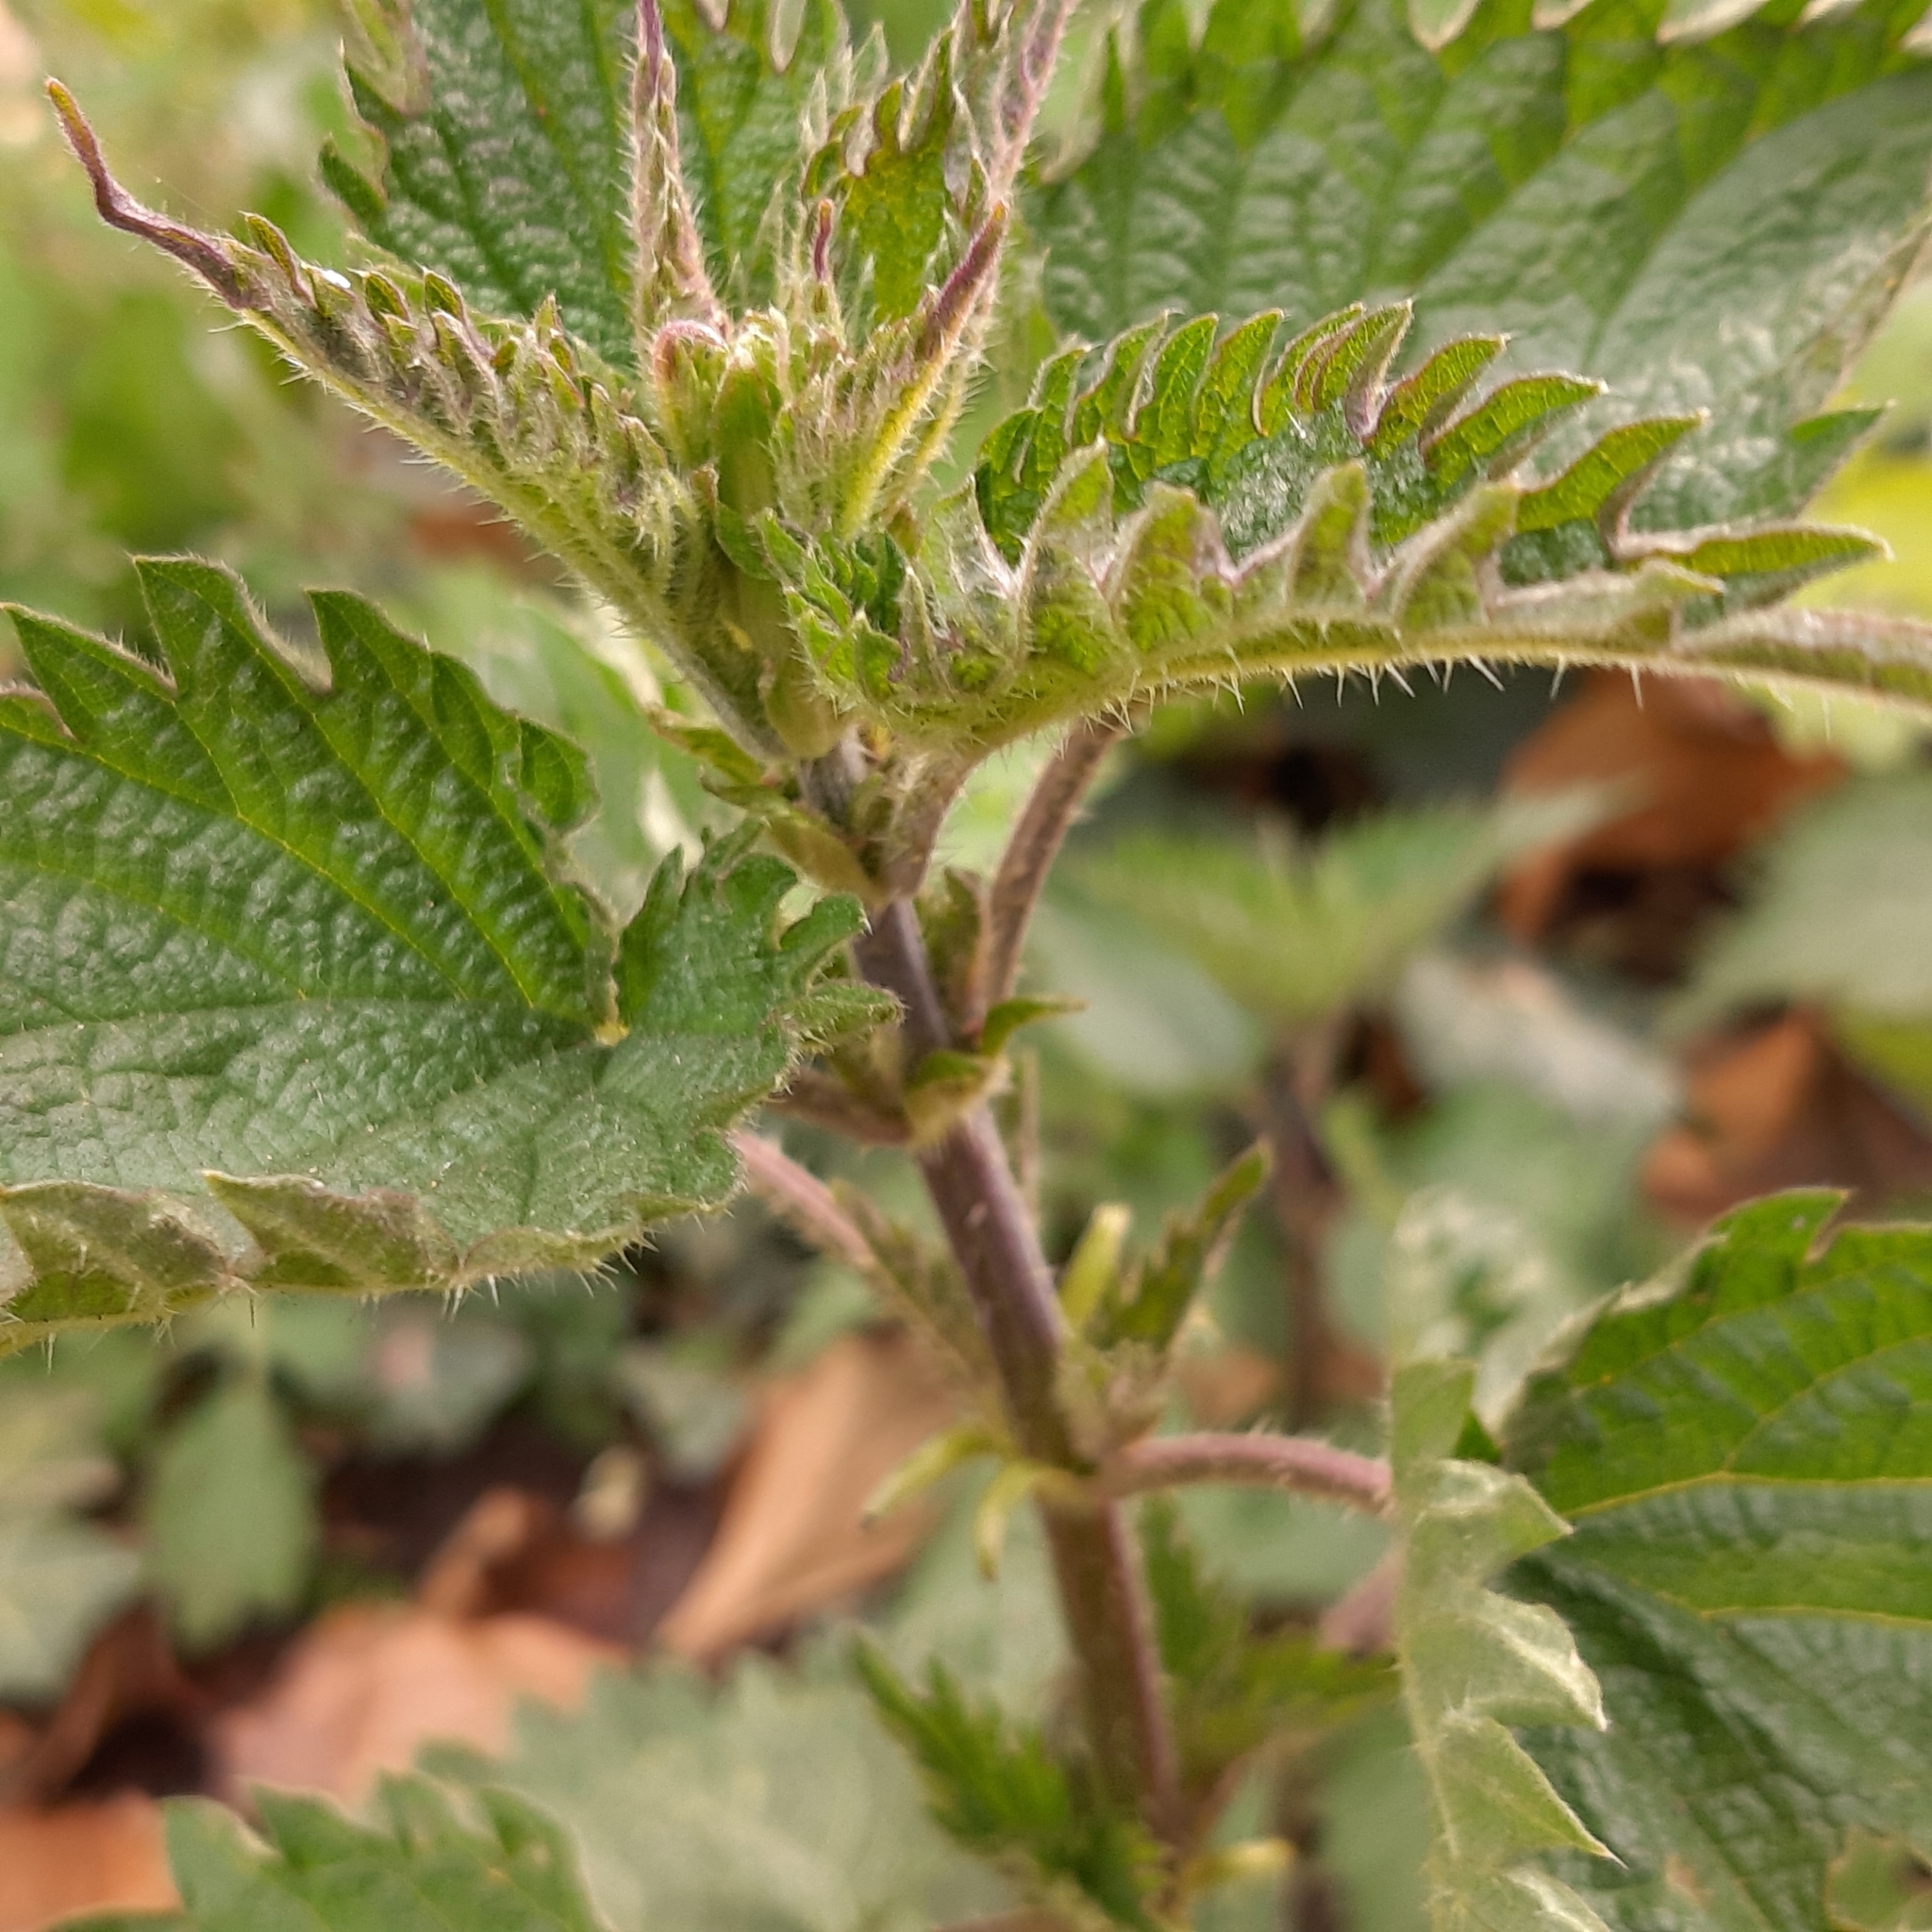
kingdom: Plantae
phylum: Tracheophyta
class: Magnoliopsida
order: Rosales
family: Urticaceae
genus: Urtica
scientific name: Urtica dioica
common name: Common nettle
